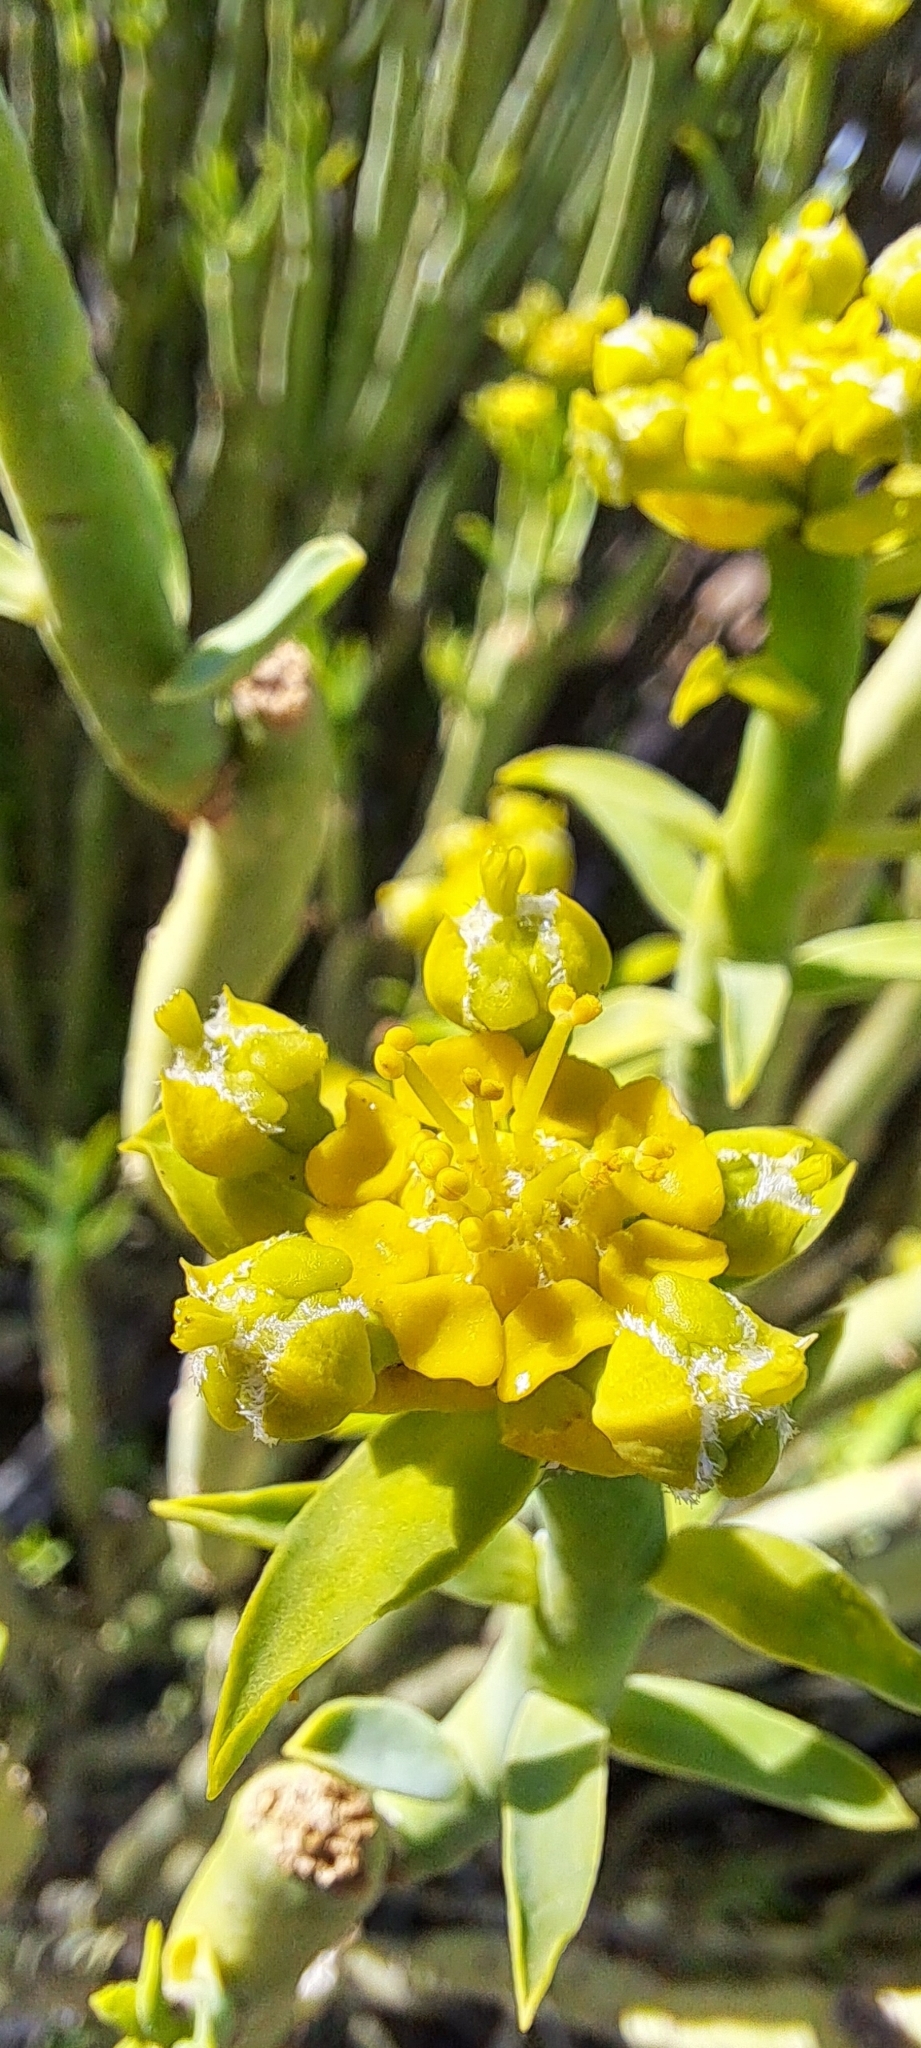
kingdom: Plantae
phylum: Tracheophyta
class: Magnoliopsida
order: Malpighiales
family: Euphorbiaceae
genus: Euphorbia
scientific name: Euphorbia mauritanica
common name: Jackal's-food
